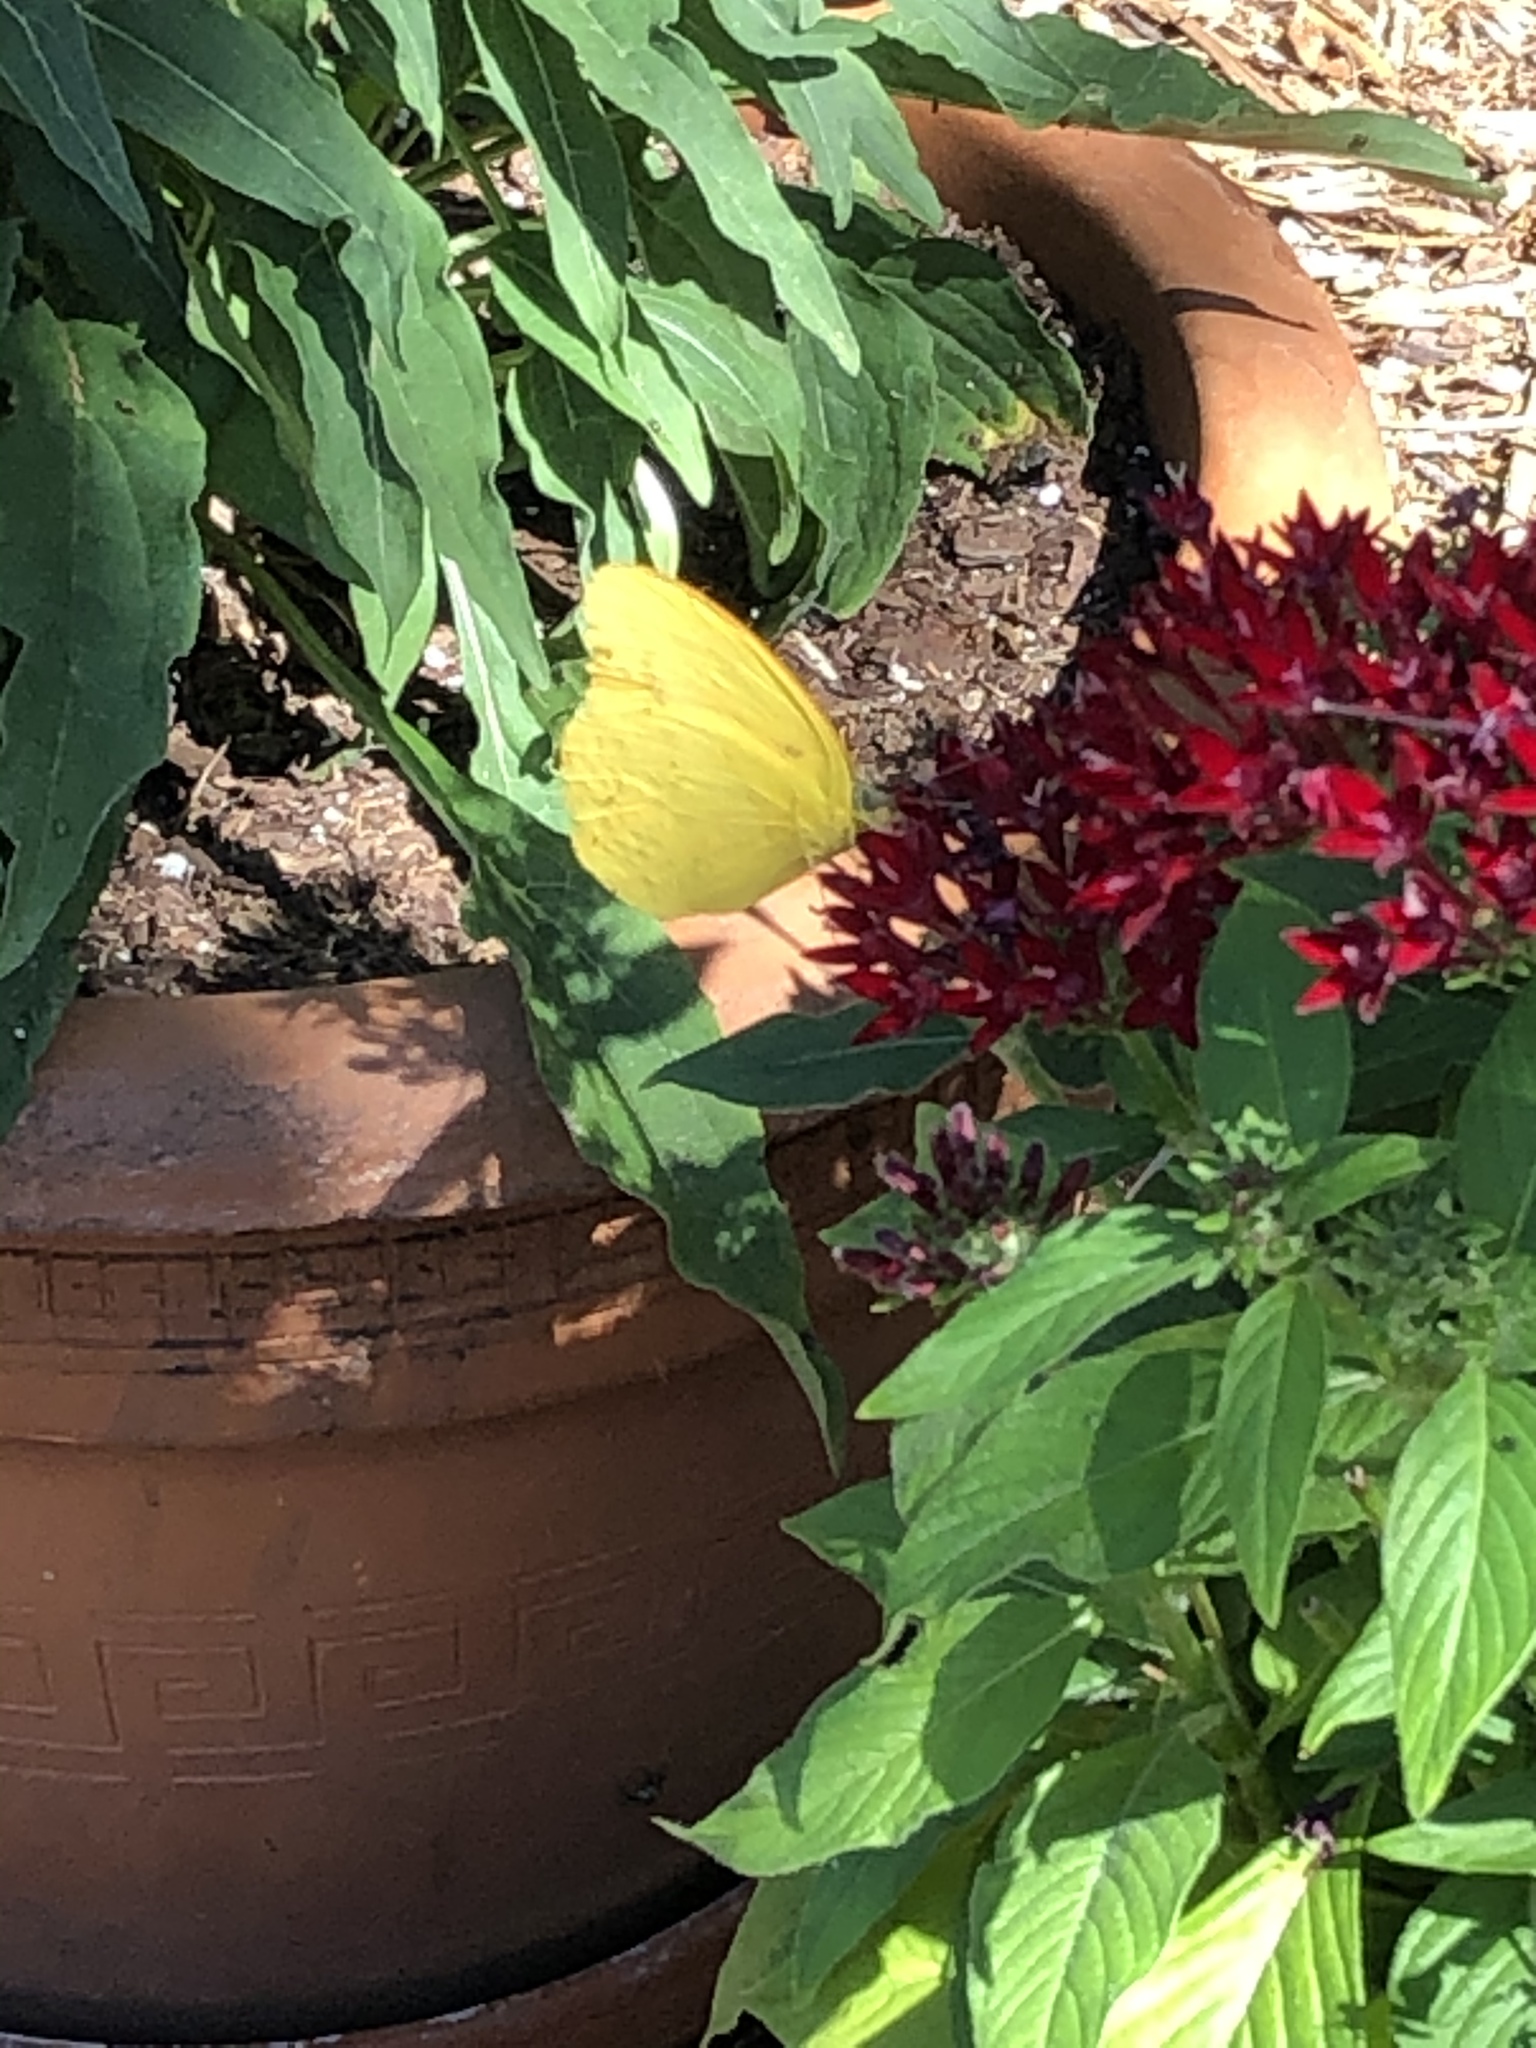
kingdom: Animalia
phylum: Arthropoda
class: Insecta
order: Lepidoptera
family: Pieridae
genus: Phoebis
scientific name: Phoebis agarithe
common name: Large orange sulphur
